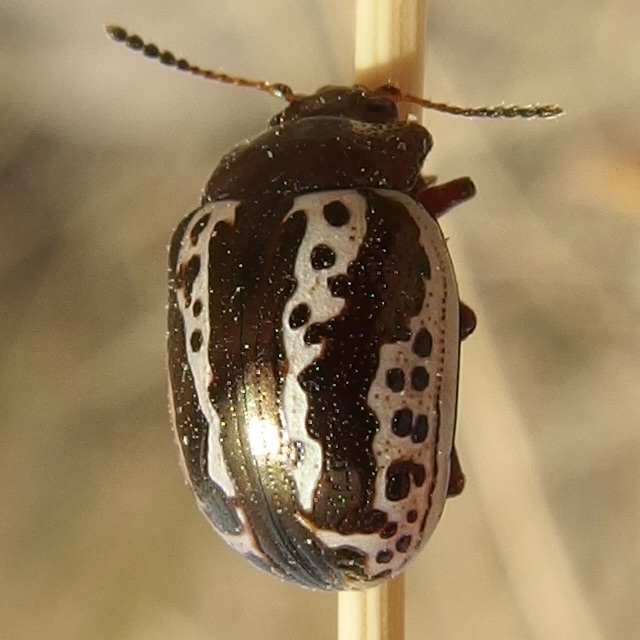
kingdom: Animalia
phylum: Arthropoda
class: Insecta
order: Coleoptera
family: Chrysomelidae
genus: Calligrapha
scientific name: Calligrapha
